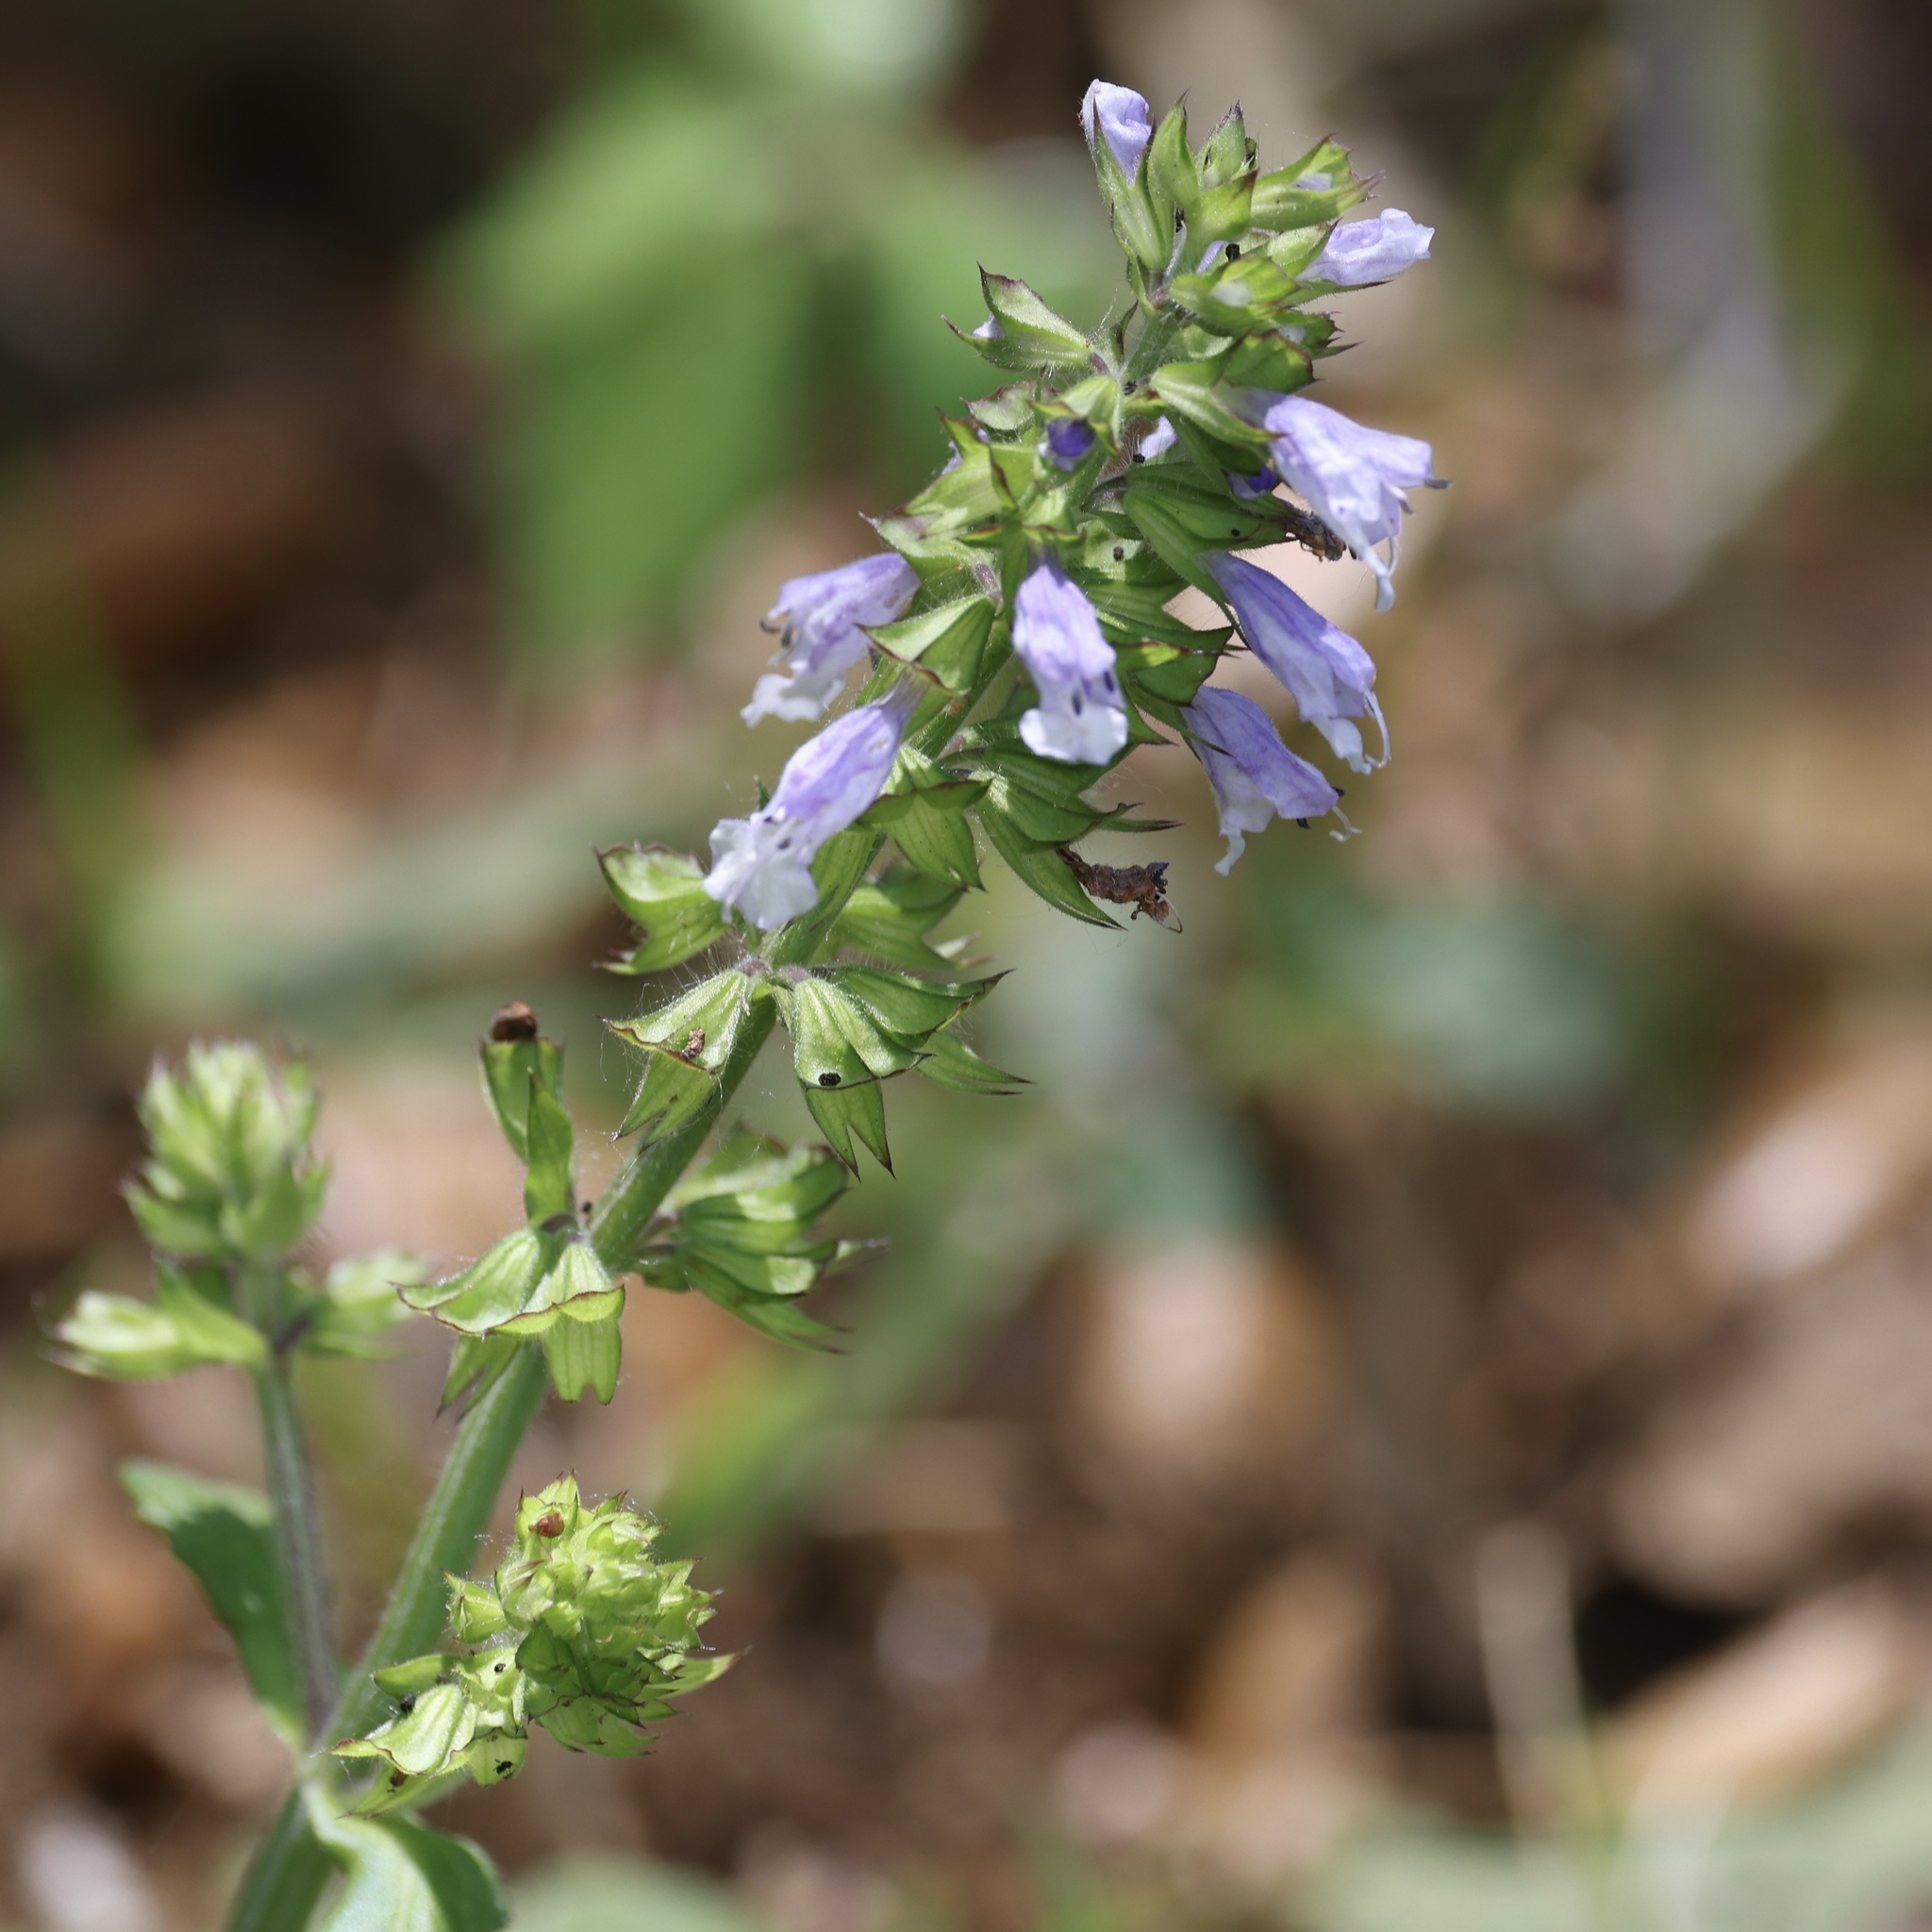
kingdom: Plantae
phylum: Tracheophyta
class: Magnoliopsida
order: Lamiales
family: Lamiaceae
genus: Salvia
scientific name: Salvia lyrata
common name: Cancerweed
